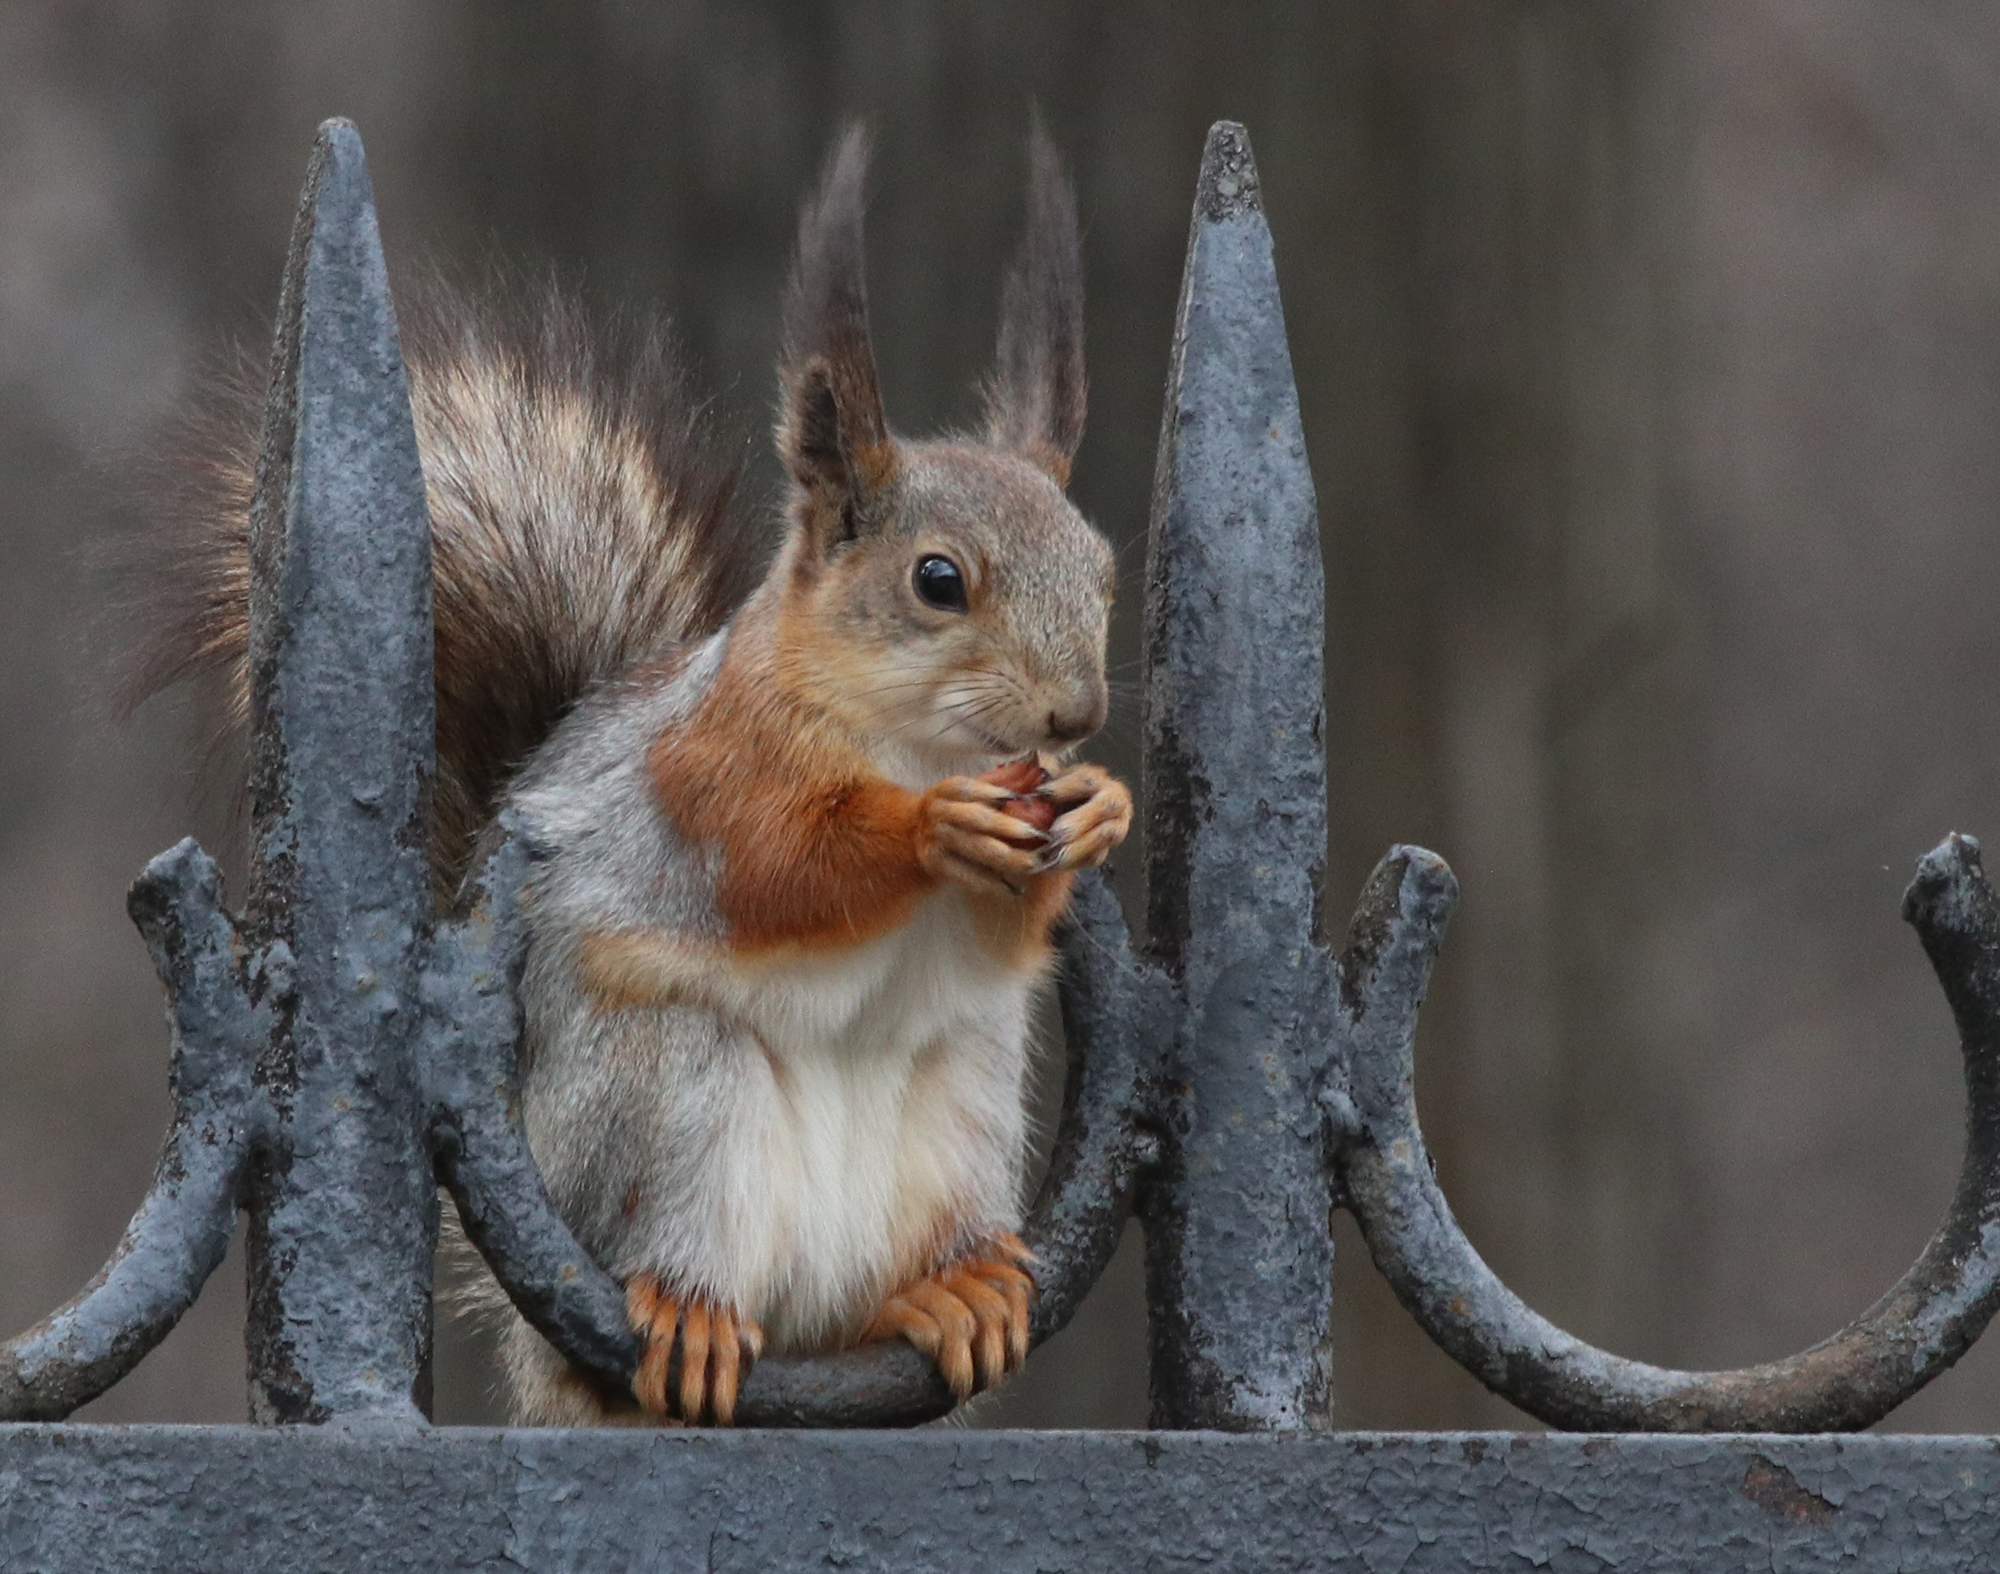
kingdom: Animalia
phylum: Chordata
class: Mammalia
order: Rodentia
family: Sciuridae
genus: Sciurus
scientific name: Sciurus vulgaris
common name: Eurasian red squirrel
